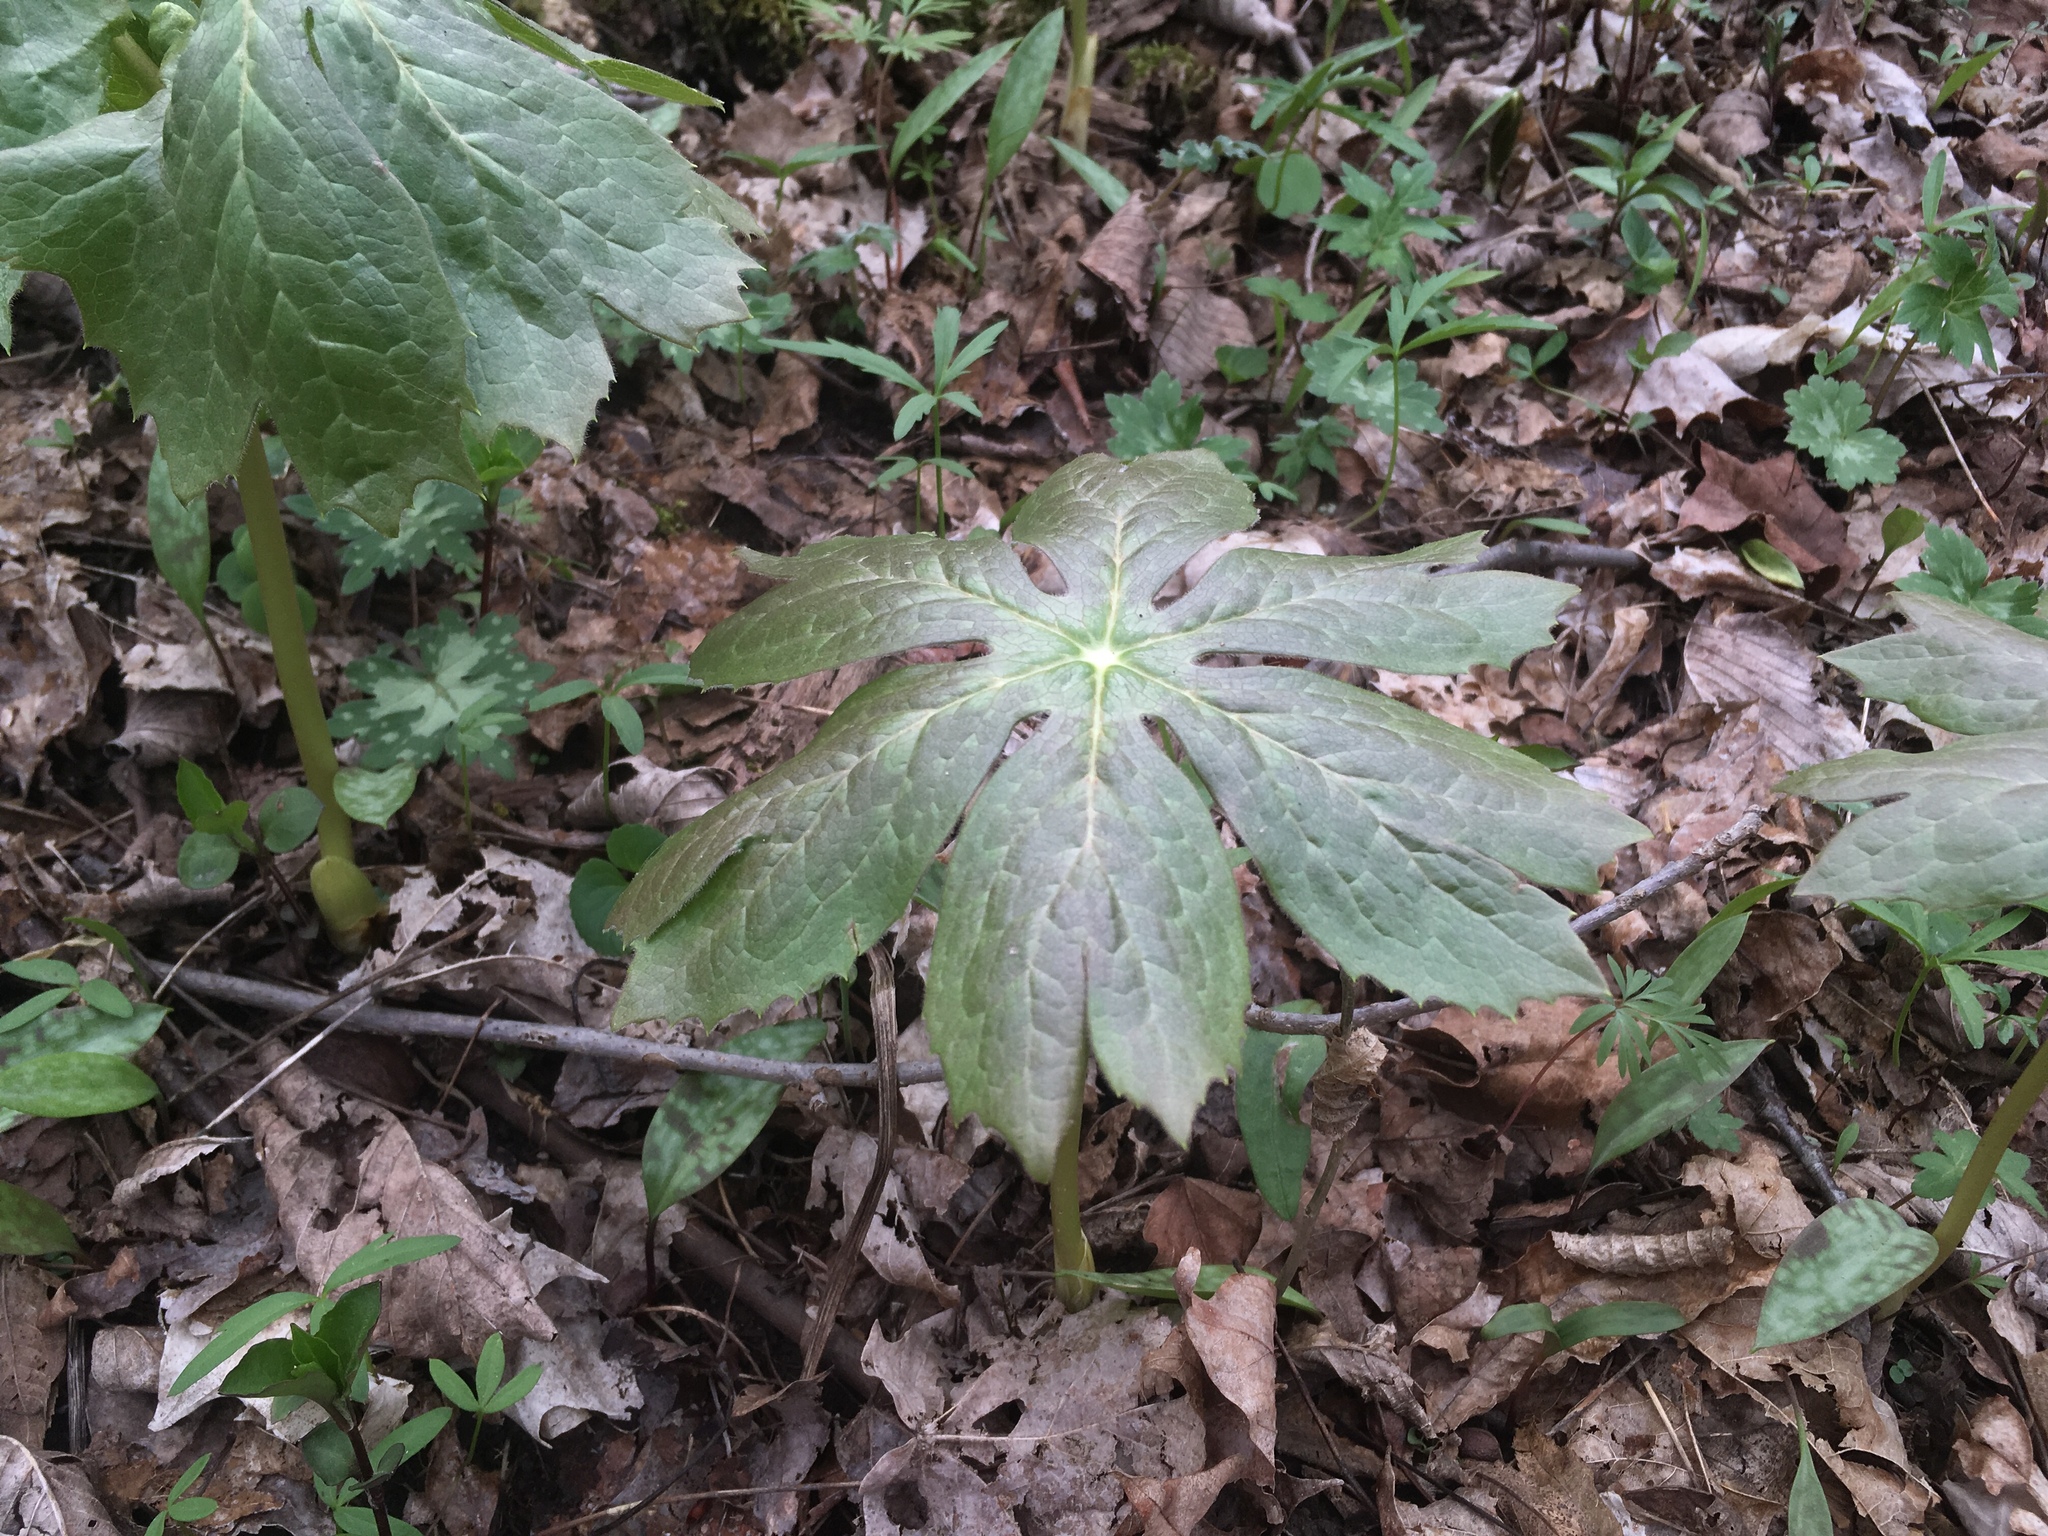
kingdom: Plantae
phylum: Tracheophyta
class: Magnoliopsida
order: Ranunculales
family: Berberidaceae
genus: Podophyllum
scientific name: Podophyllum peltatum
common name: Wild mandrake
